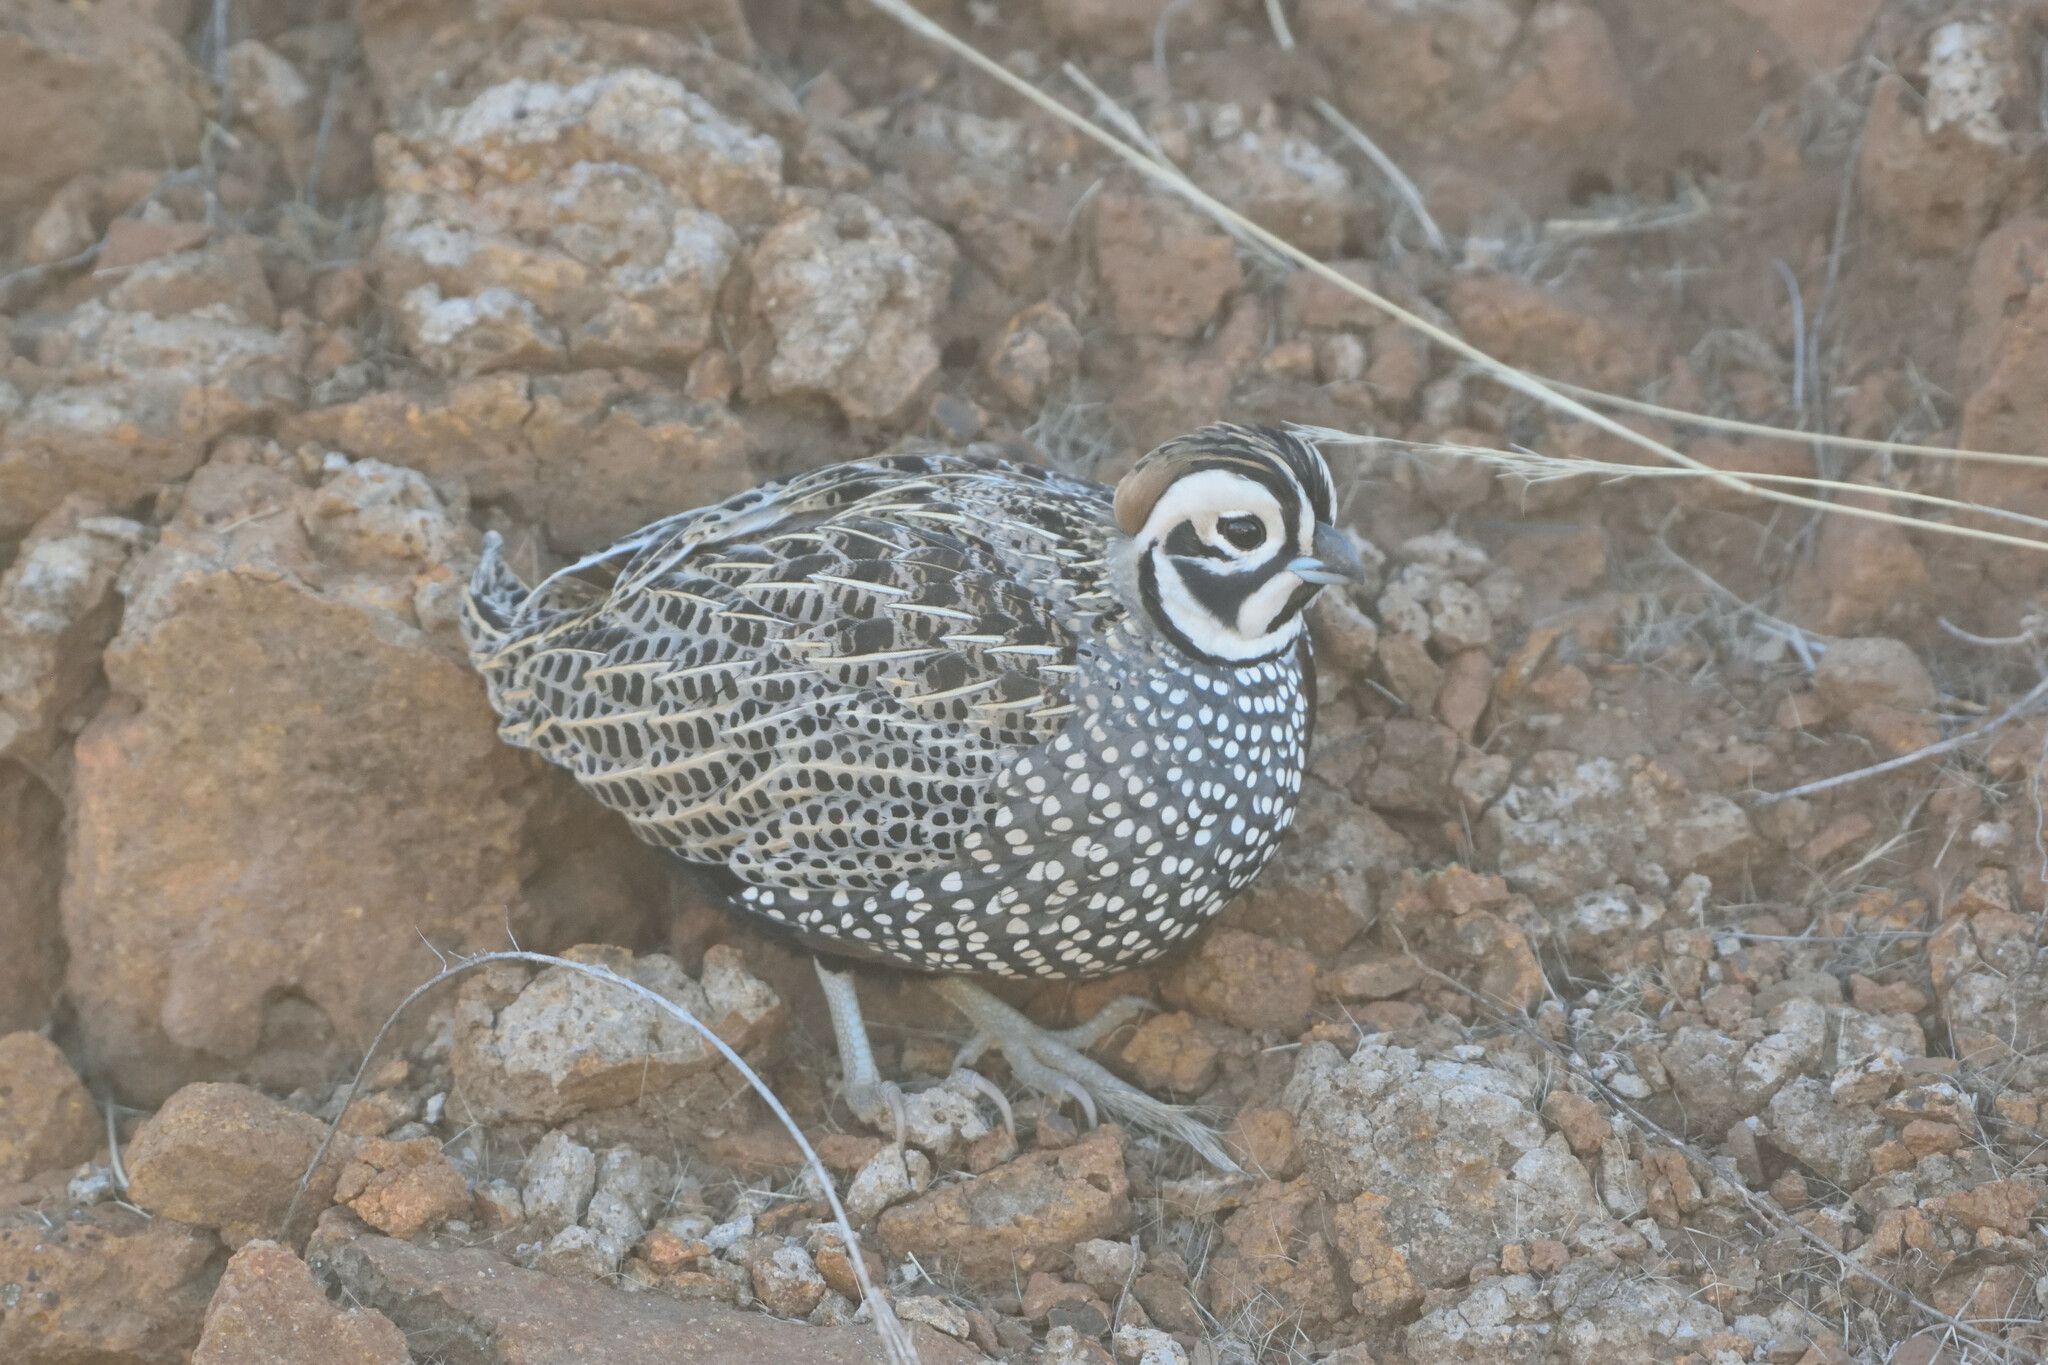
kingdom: Animalia
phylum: Chordata
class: Aves
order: Galliformes
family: Odontophoridae
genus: Cyrtonyx
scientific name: Cyrtonyx montezumae
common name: Montezuma quail
